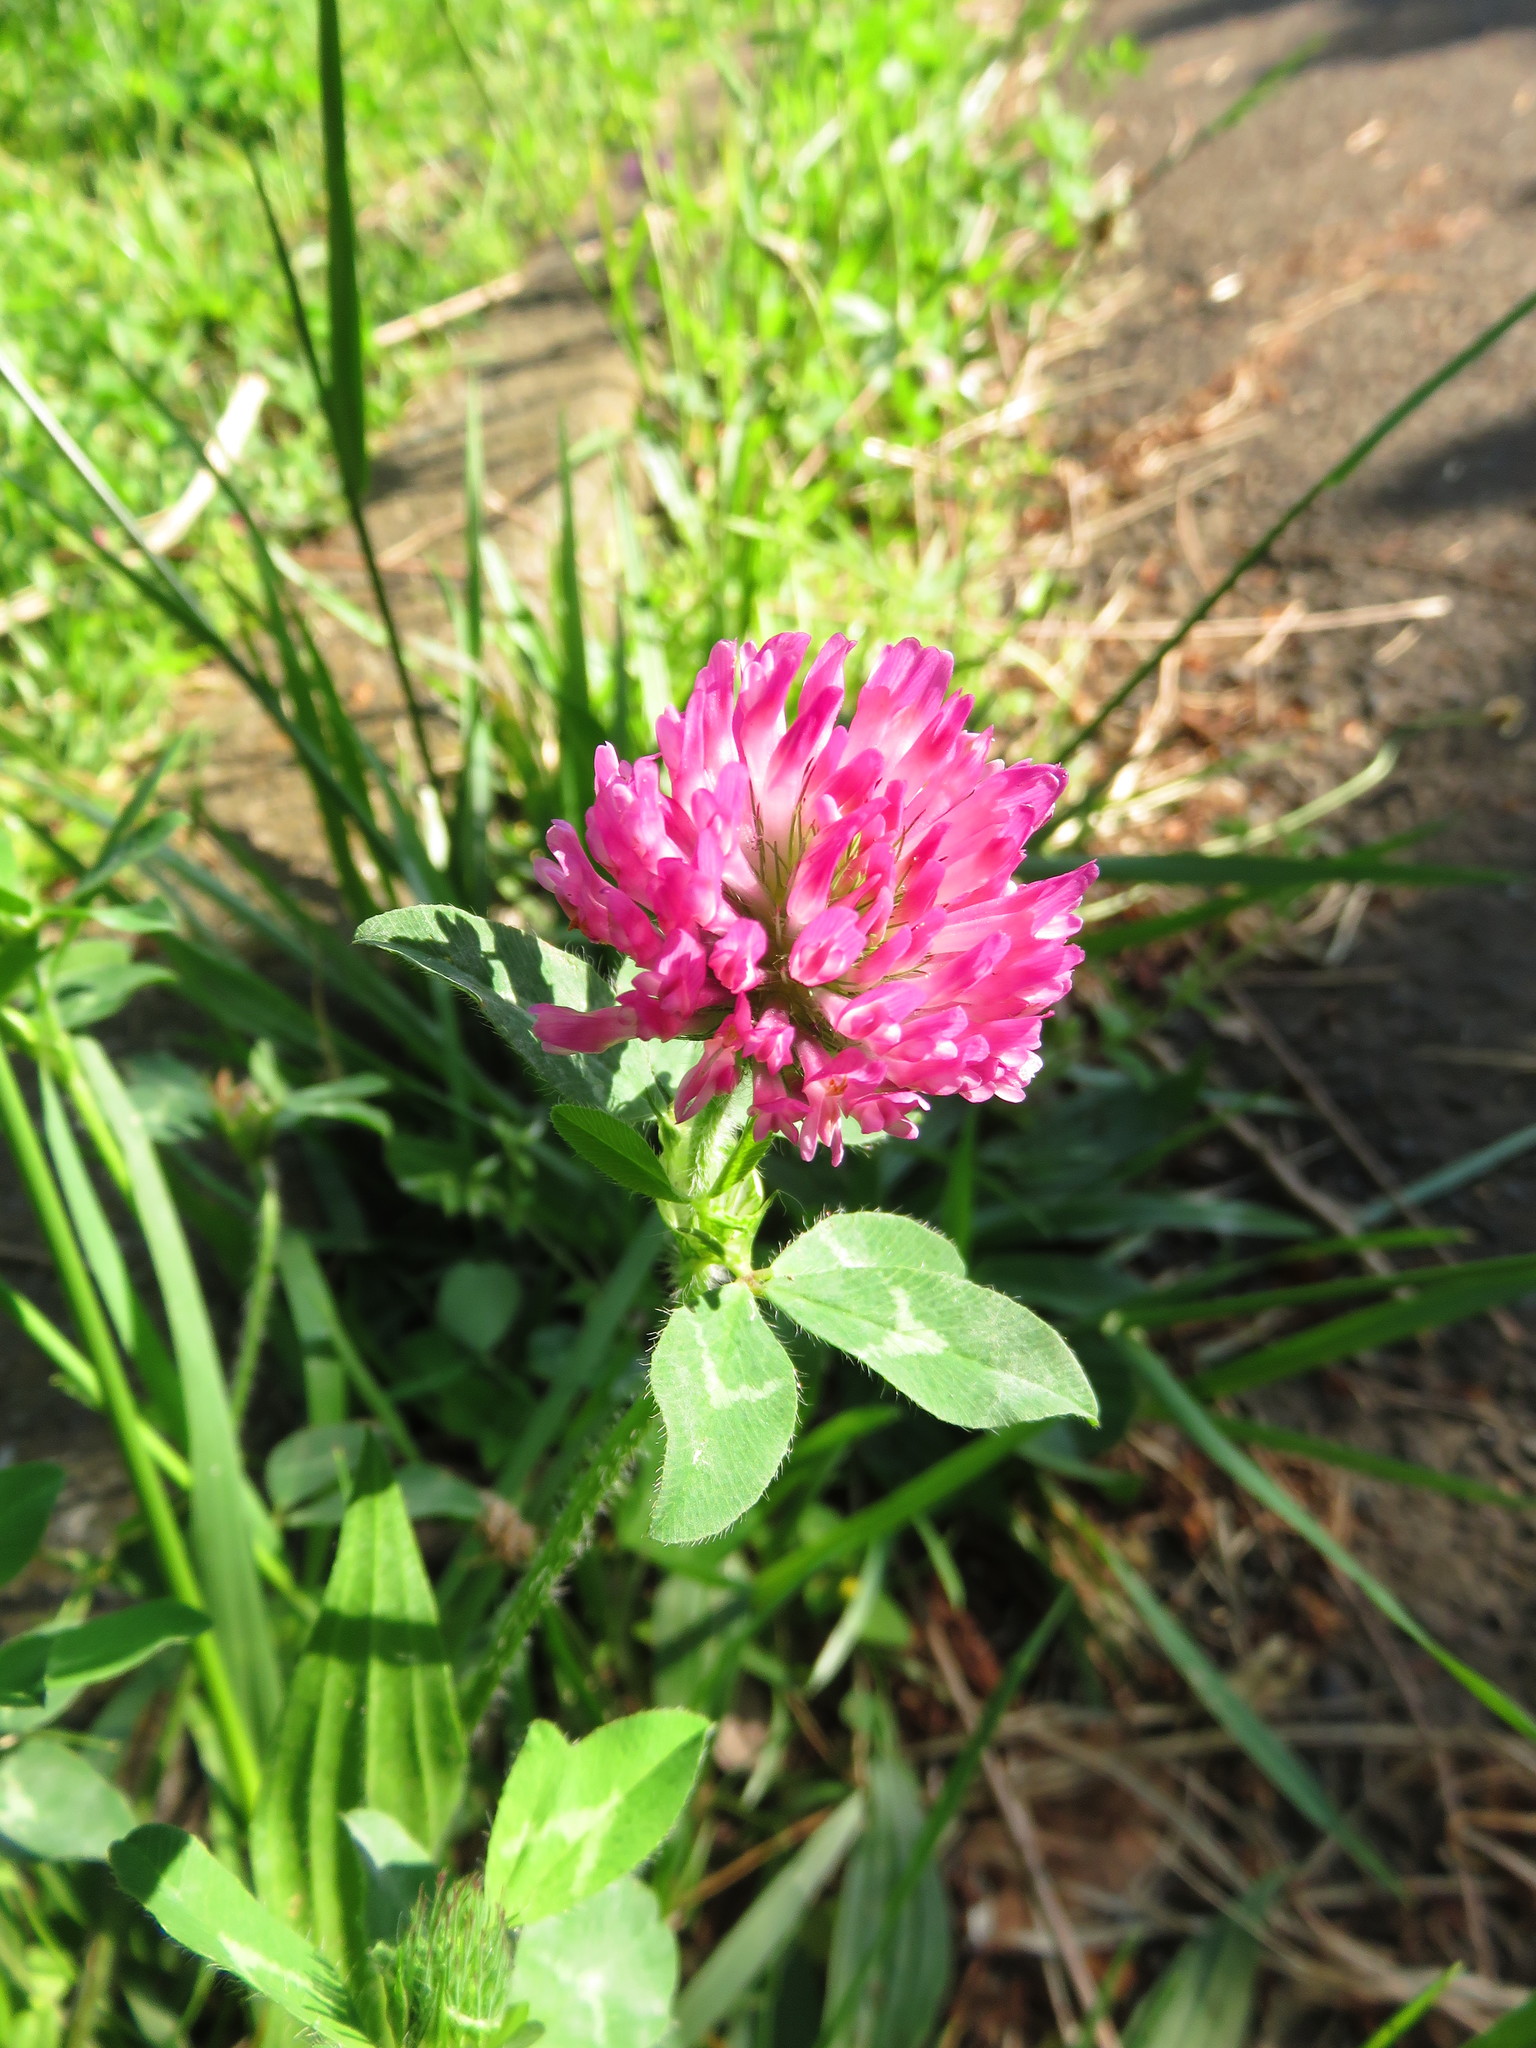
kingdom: Plantae
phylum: Tracheophyta
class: Magnoliopsida
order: Fabales
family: Fabaceae
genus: Trifolium
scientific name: Trifolium pratense
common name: Red clover
